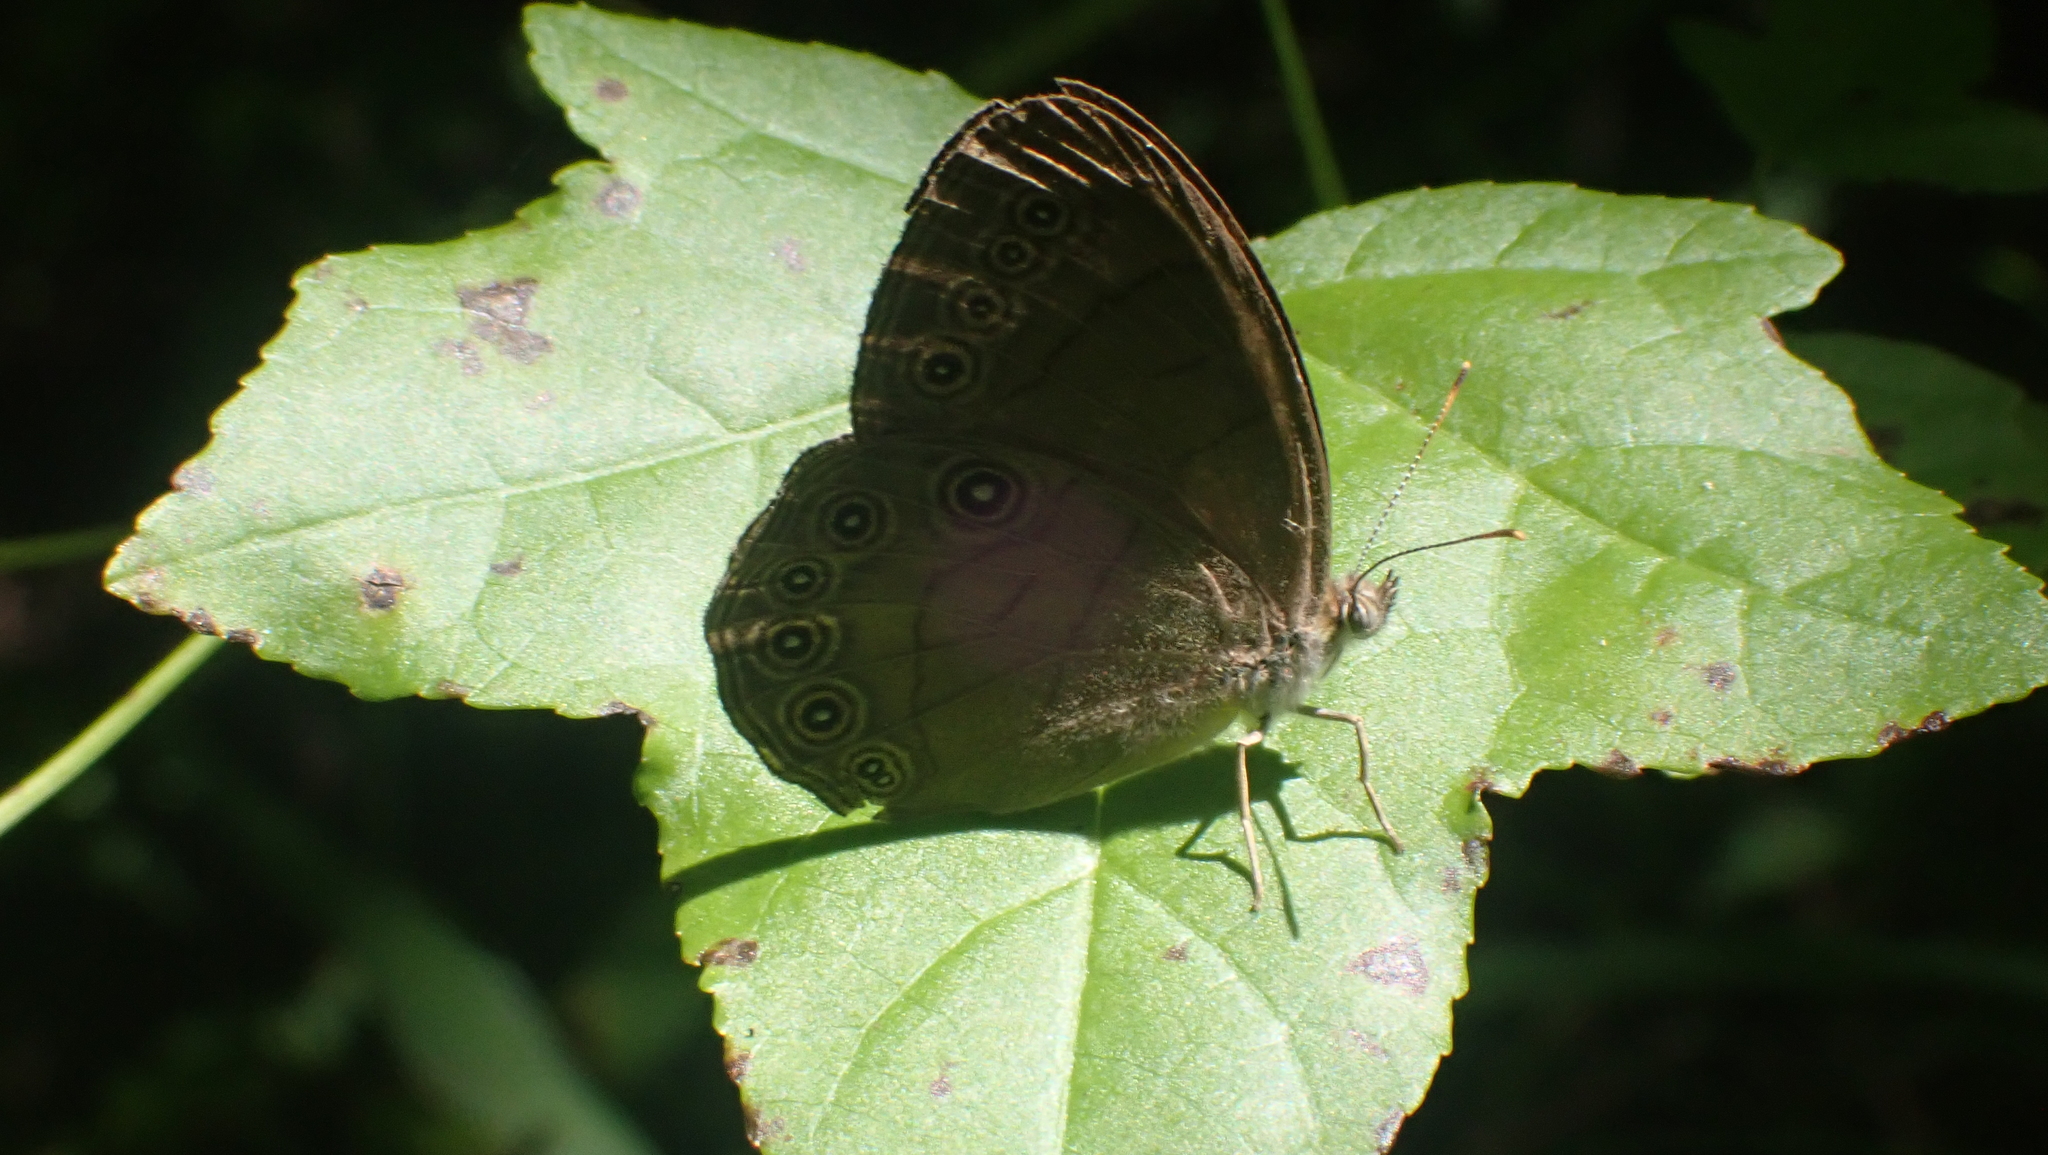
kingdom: Animalia
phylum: Arthropoda
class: Insecta
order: Lepidoptera
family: Nymphalidae
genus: Lethe
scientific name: Lethe eurydice
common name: Eyed brown
